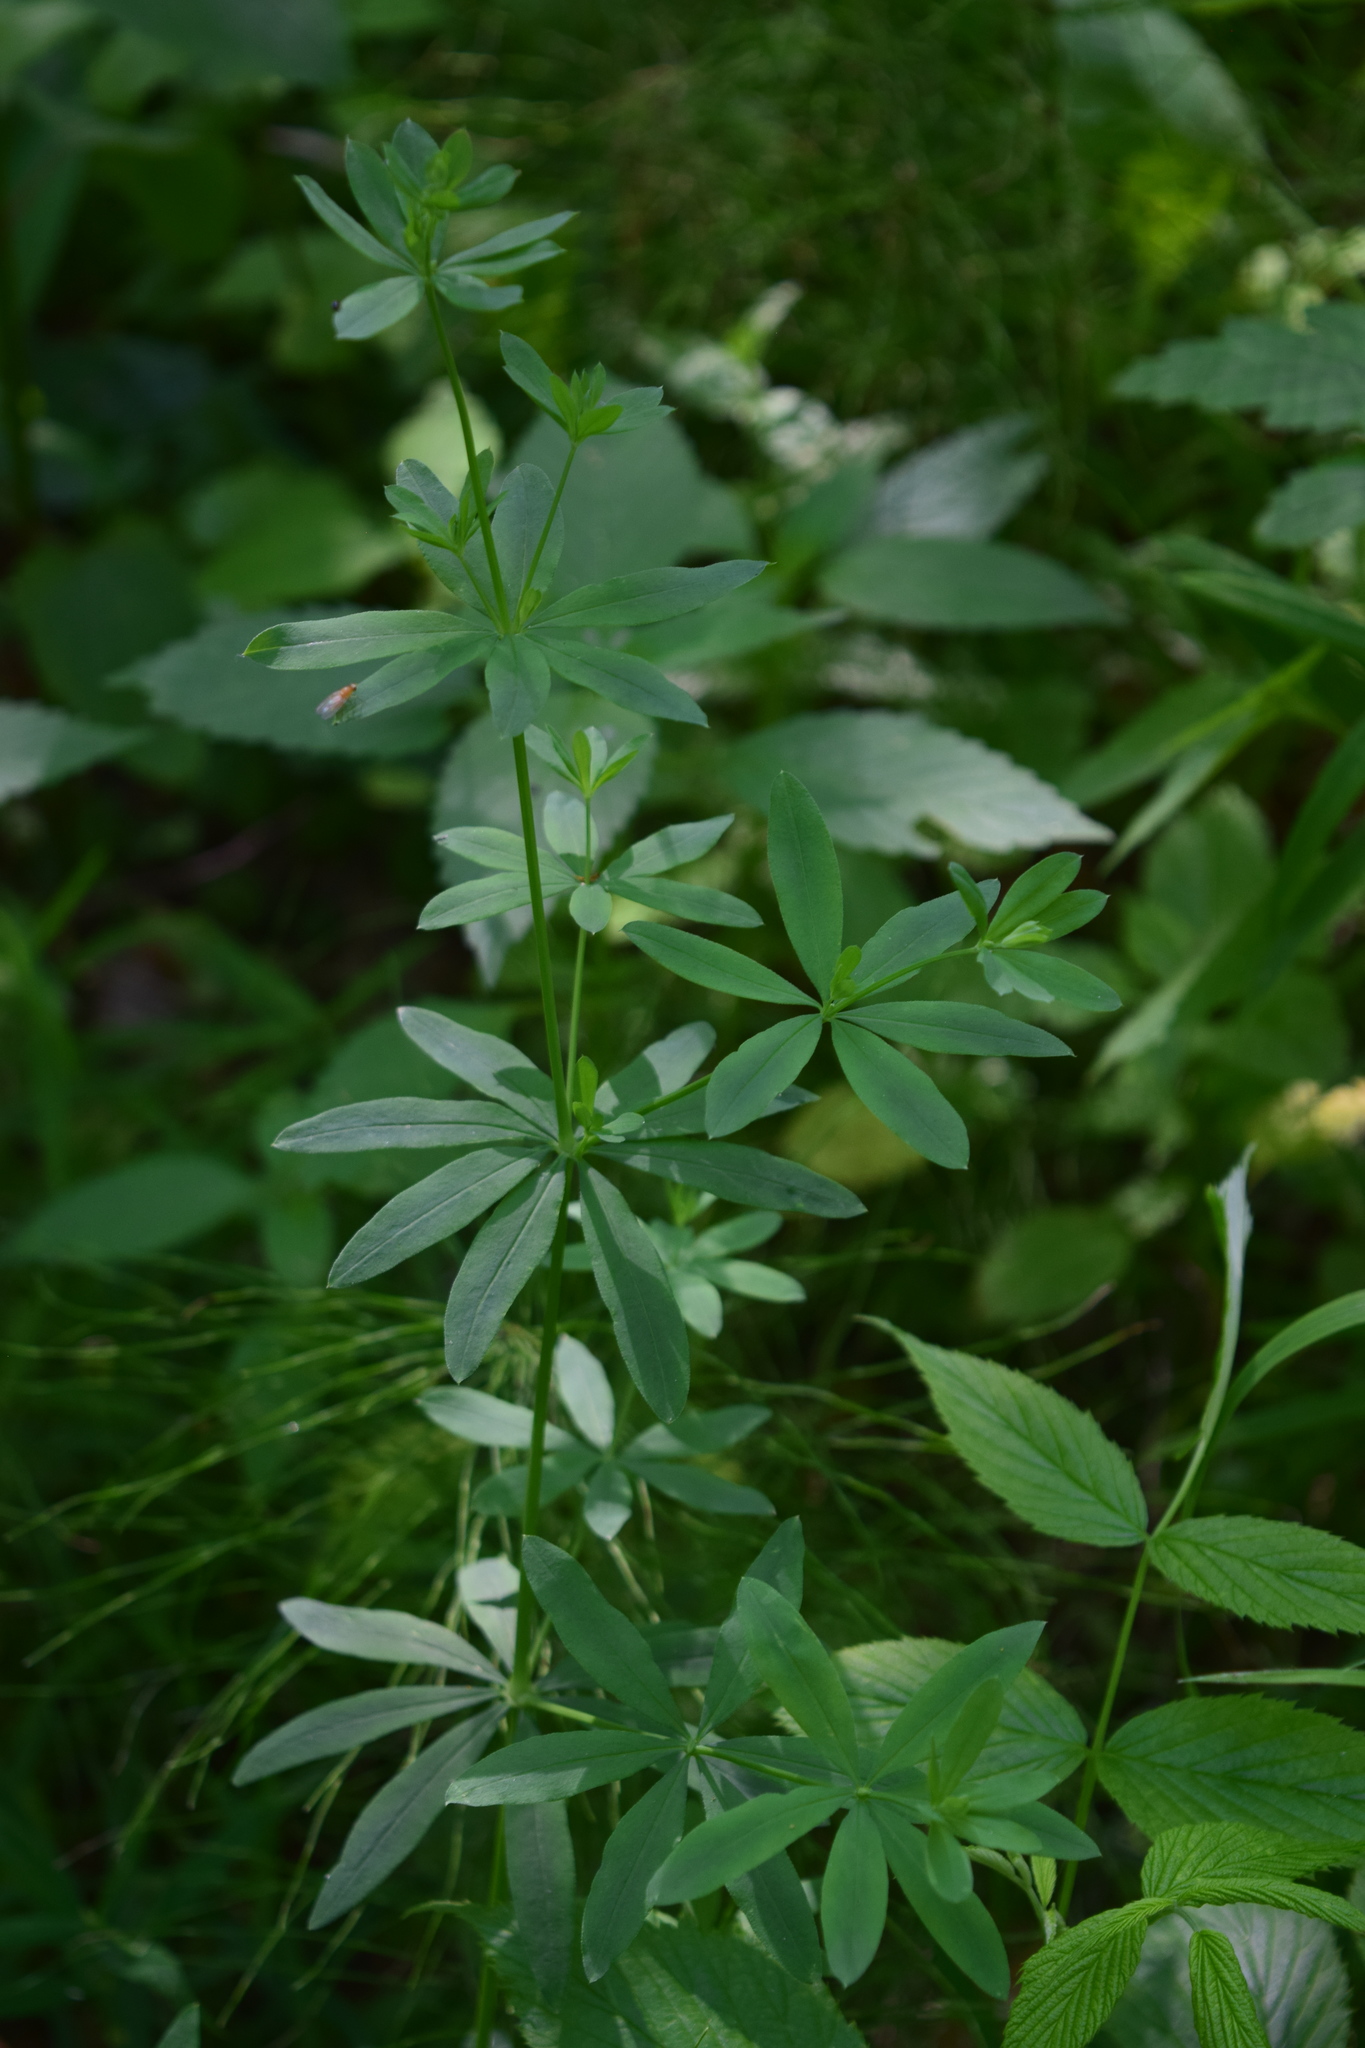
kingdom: Plantae
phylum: Tracheophyta
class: Magnoliopsida
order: Gentianales
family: Rubiaceae
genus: Galium
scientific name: Galium intermedium
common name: Bedstraw
